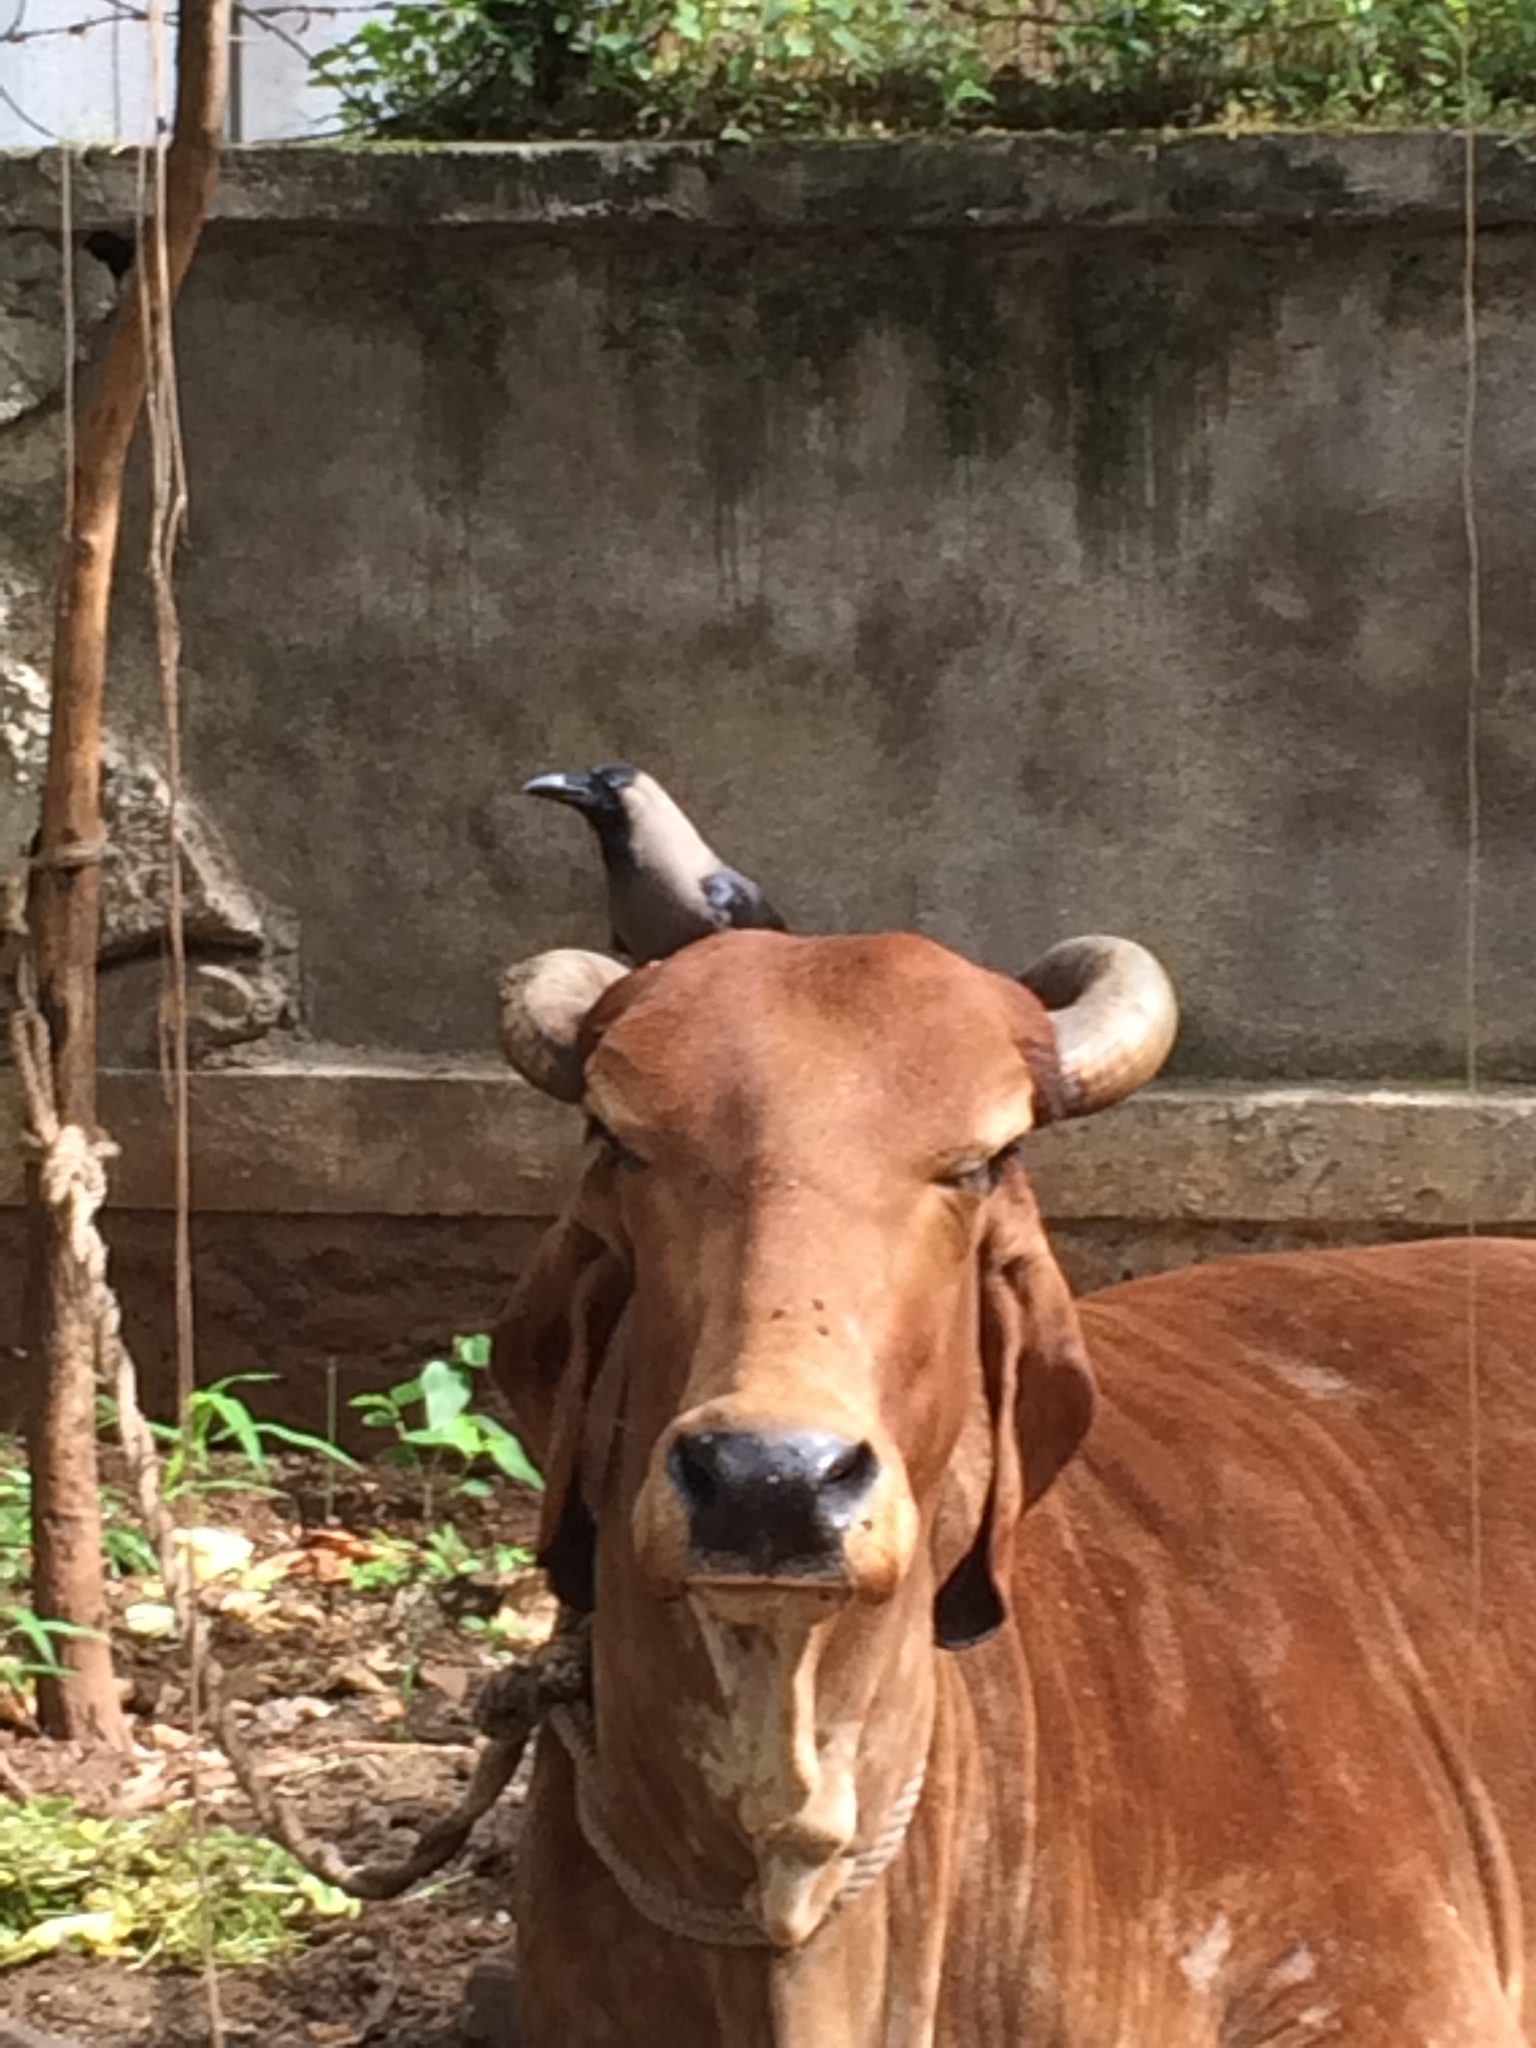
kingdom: Animalia
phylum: Chordata
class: Aves
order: Passeriformes
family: Corvidae
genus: Corvus
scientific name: Corvus splendens
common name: House crow
